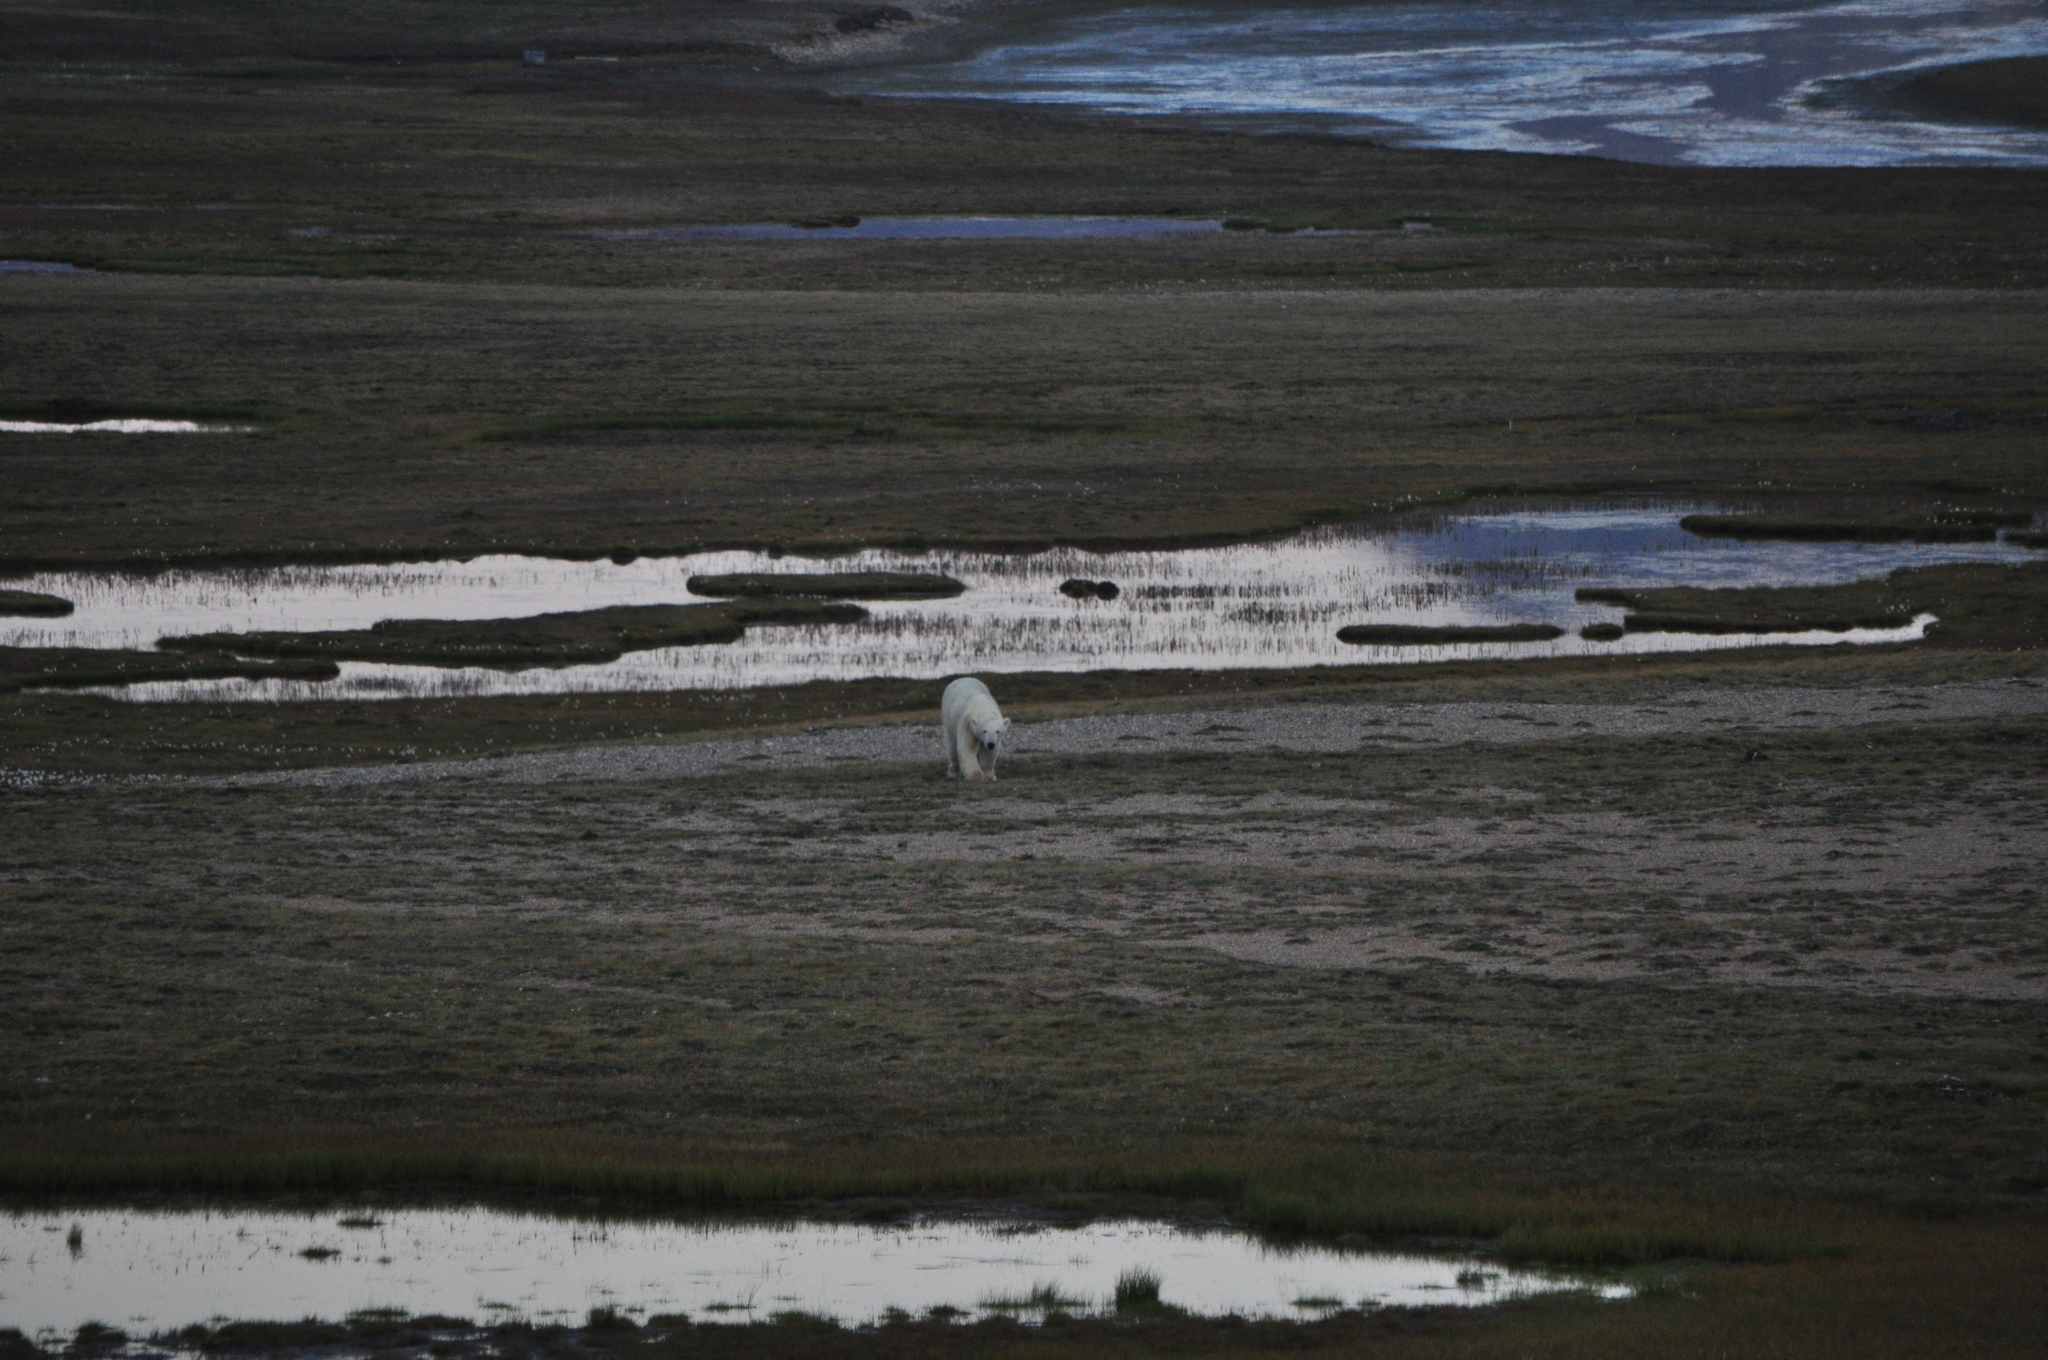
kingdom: Animalia
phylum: Chordata
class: Mammalia
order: Carnivora
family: Ursidae
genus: Ursus
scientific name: Ursus maritimus
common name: Polar bear
